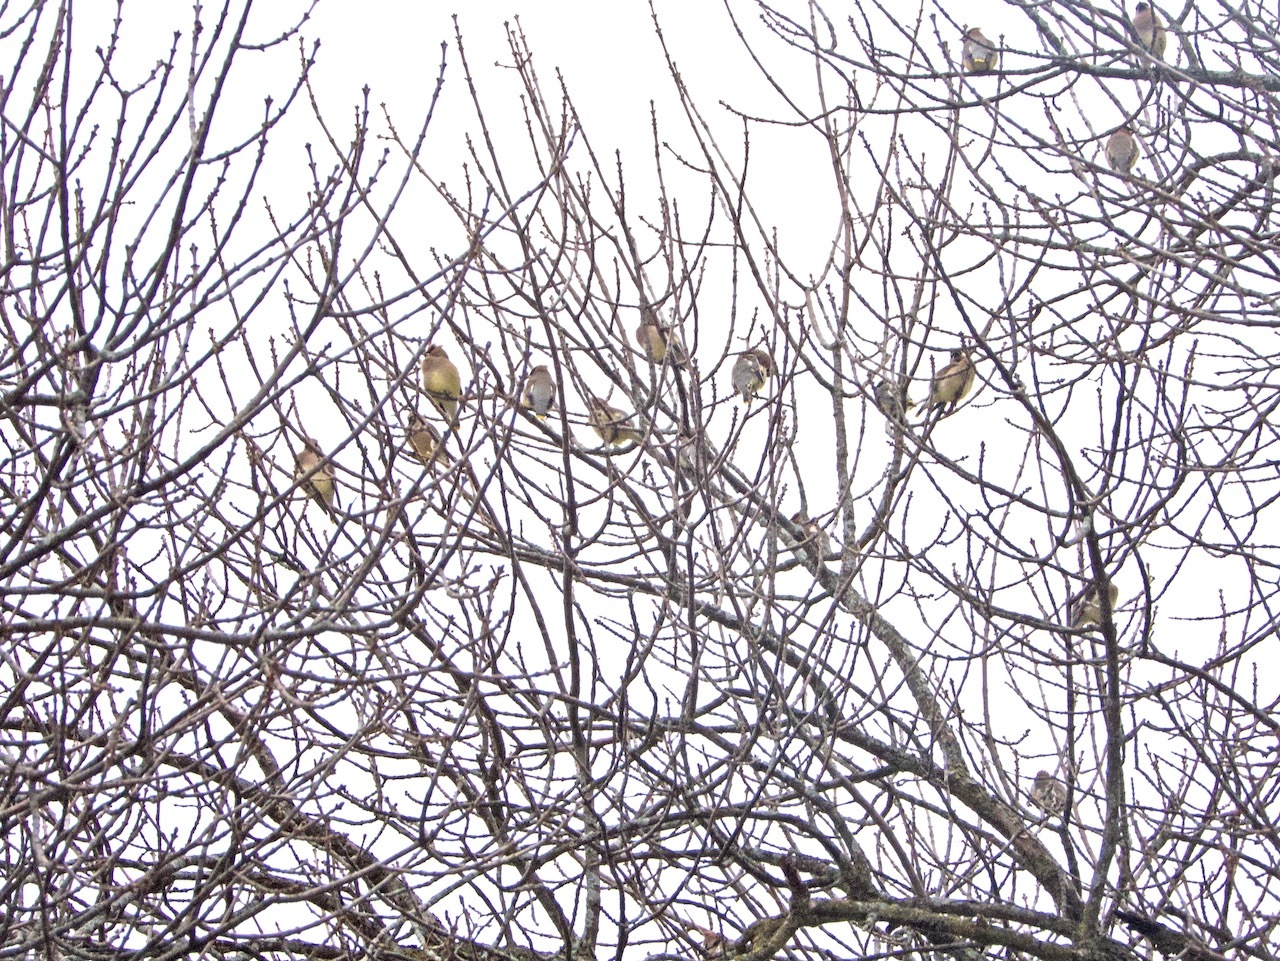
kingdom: Animalia
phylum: Chordata
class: Aves
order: Passeriformes
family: Bombycillidae
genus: Bombycilla
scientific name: Bombycilla cedrorum
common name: Cedar waxwing
